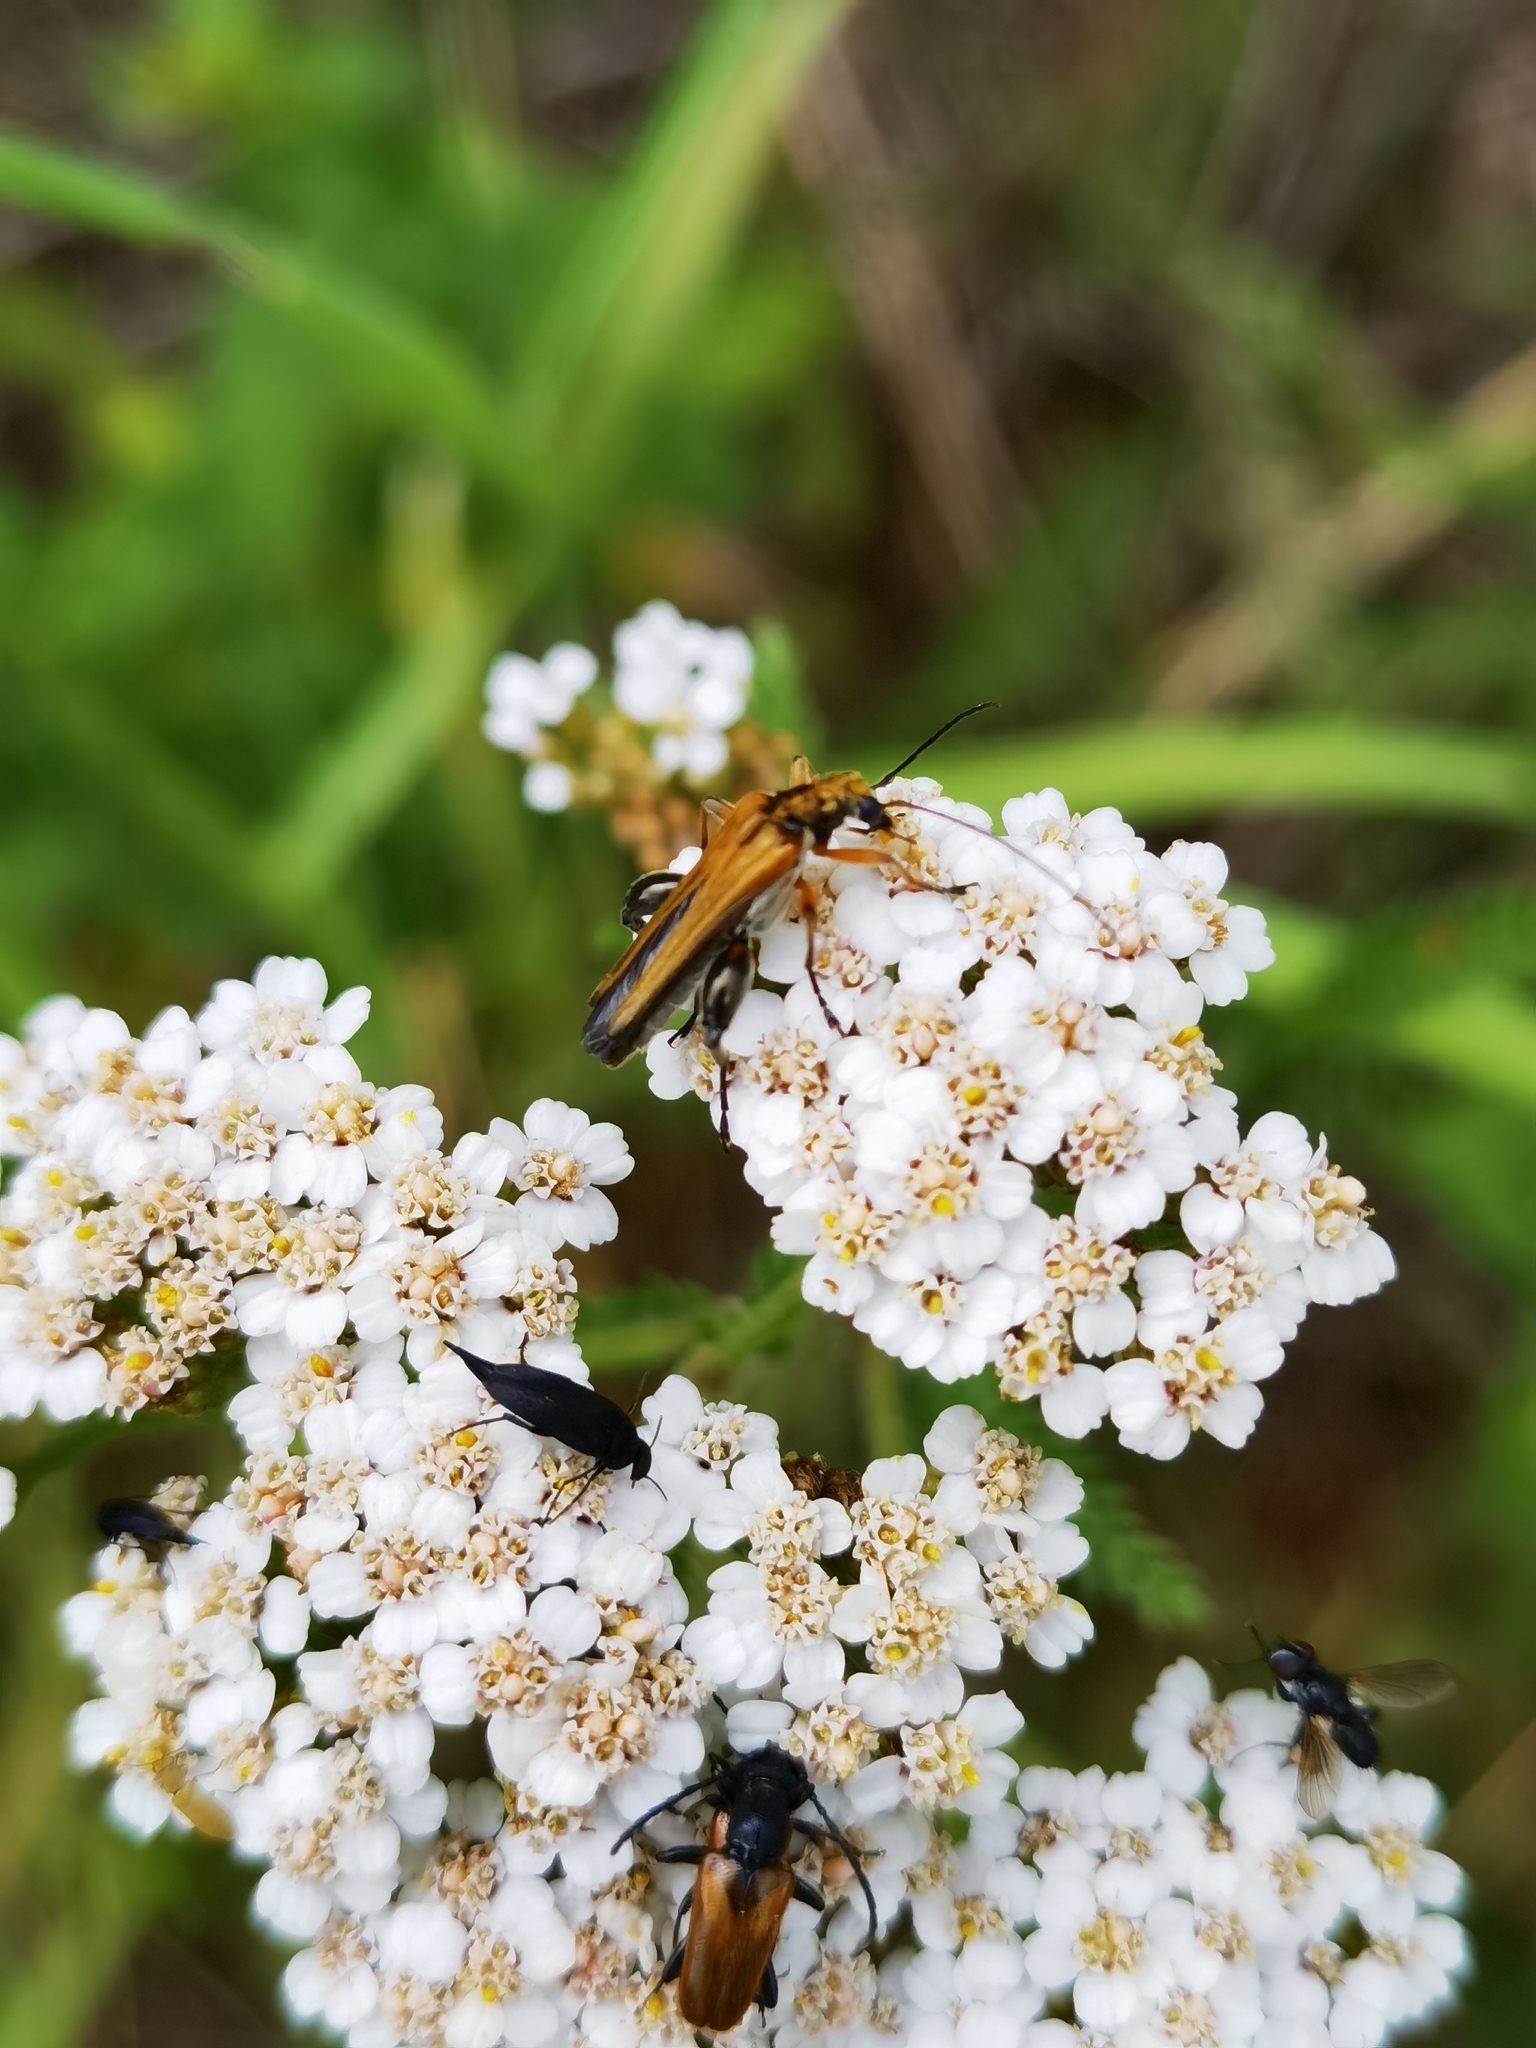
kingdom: Animalia
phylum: Arthropoda
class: Insecta
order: Coleoptera
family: Oedemeridae
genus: Oedemera
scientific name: Oedemera podagrariae
